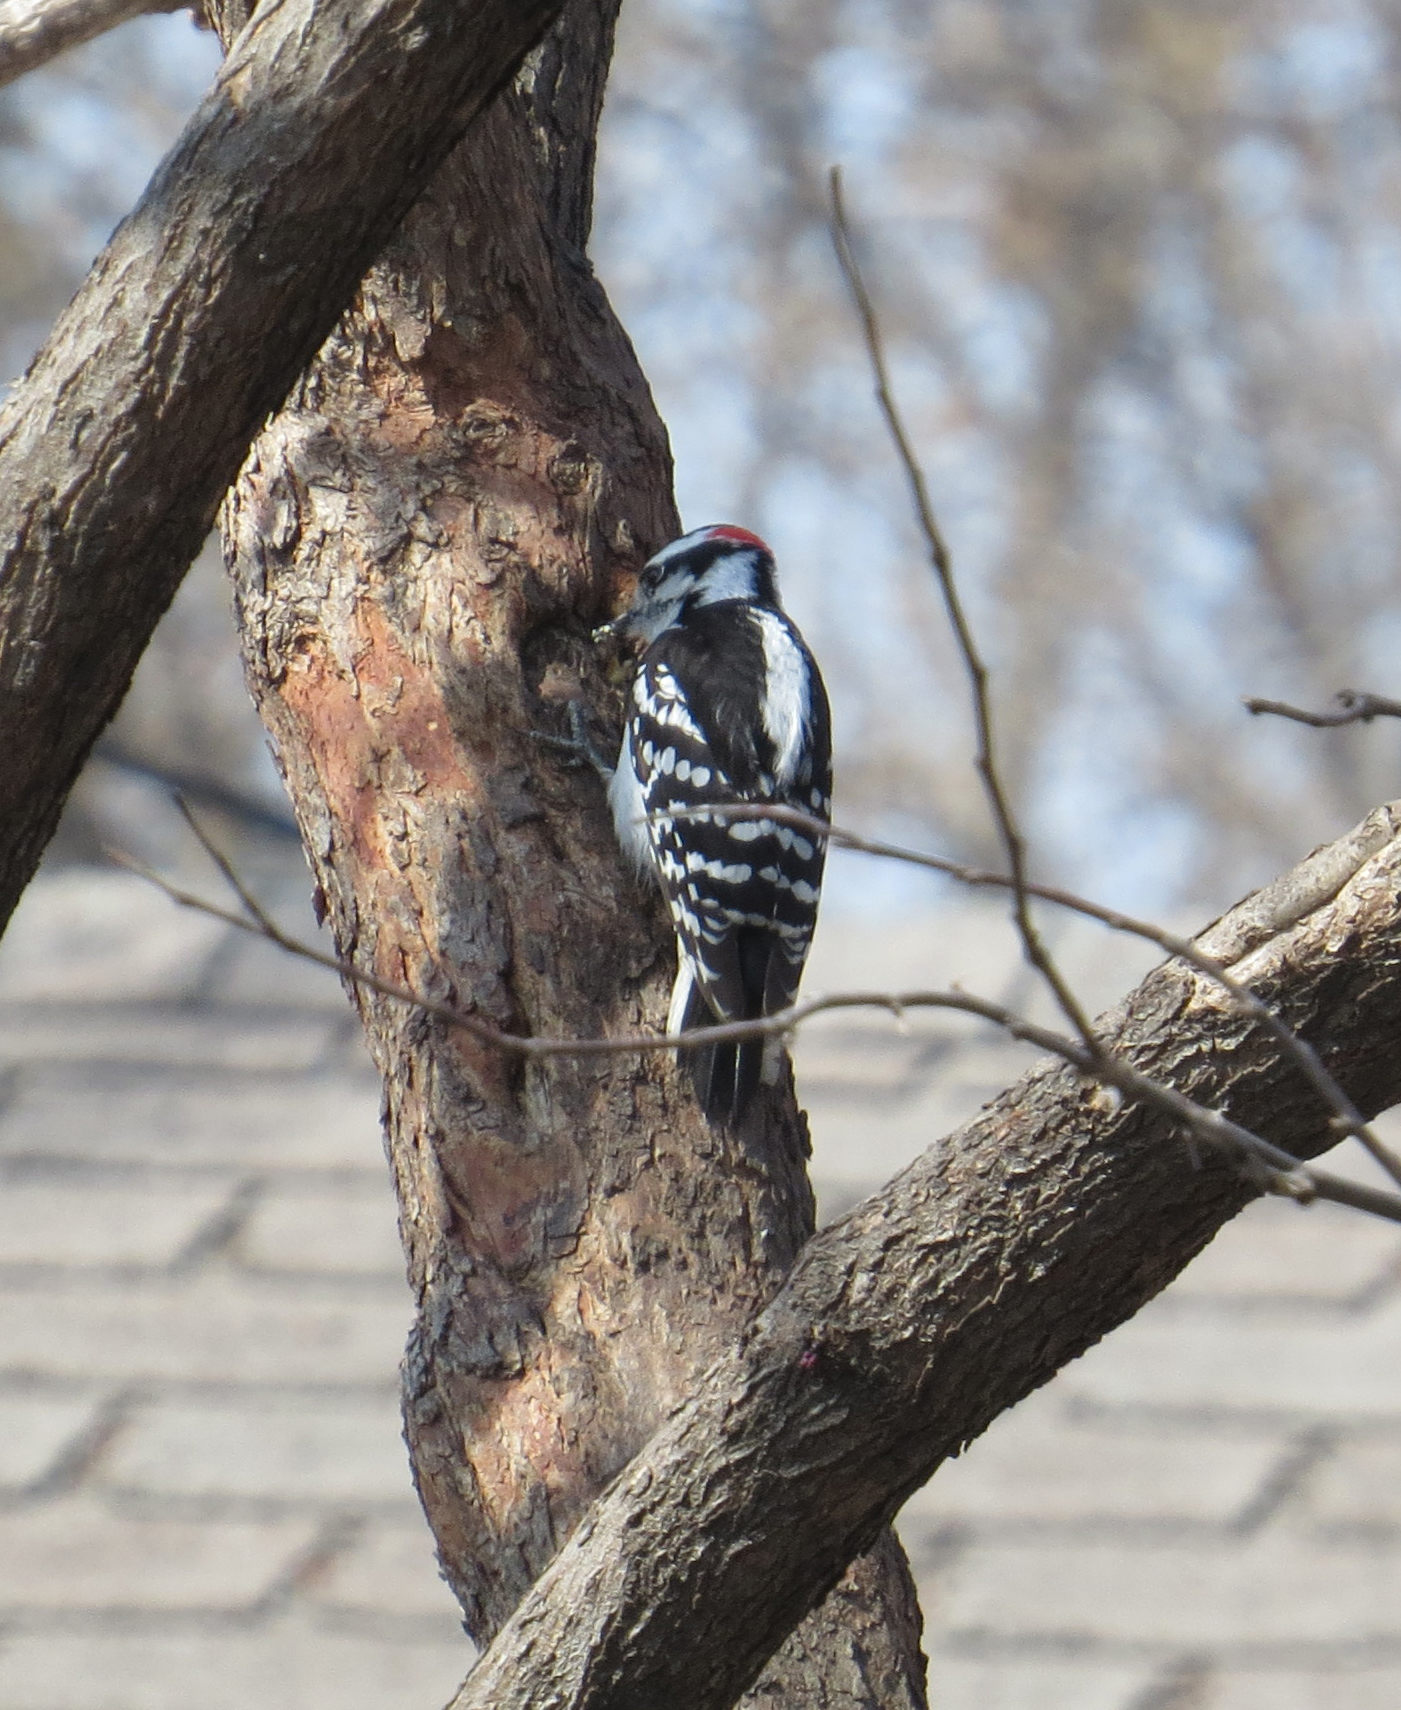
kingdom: Animalia
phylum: Chordata
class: Aves
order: Piciformes
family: Picidae
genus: Dryobates
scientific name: Dryobates pubescens
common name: Downy woodpecker
